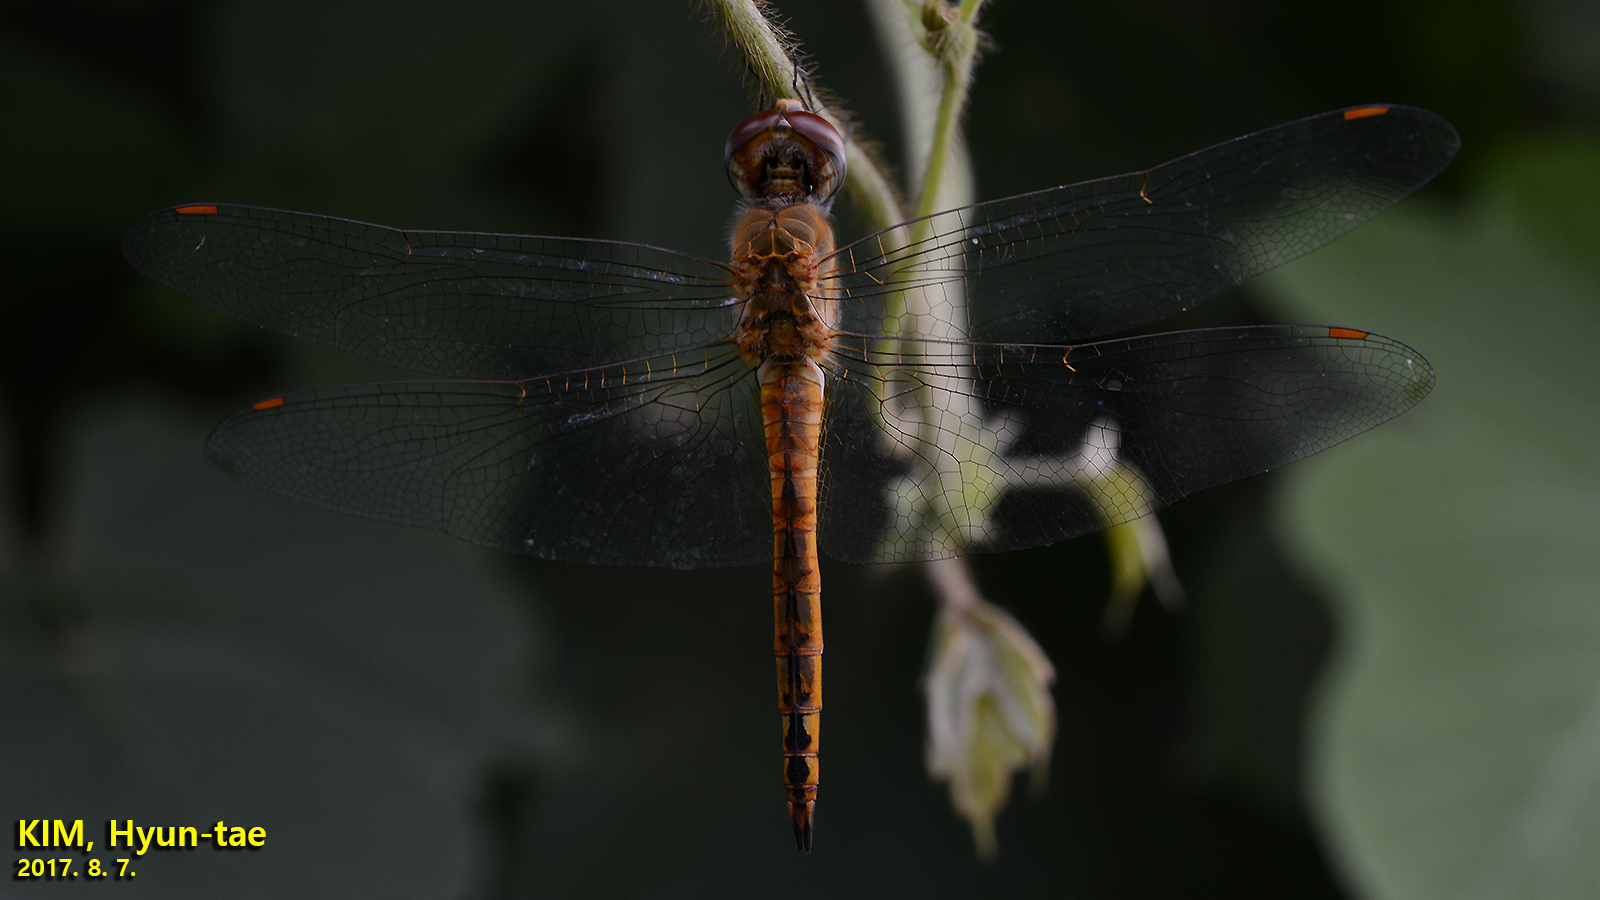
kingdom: Animalia
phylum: Arthropoda
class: Insecta
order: Odonata
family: Libellulidae
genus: Pantala
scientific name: Pantala flavescens
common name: Wandering glider
